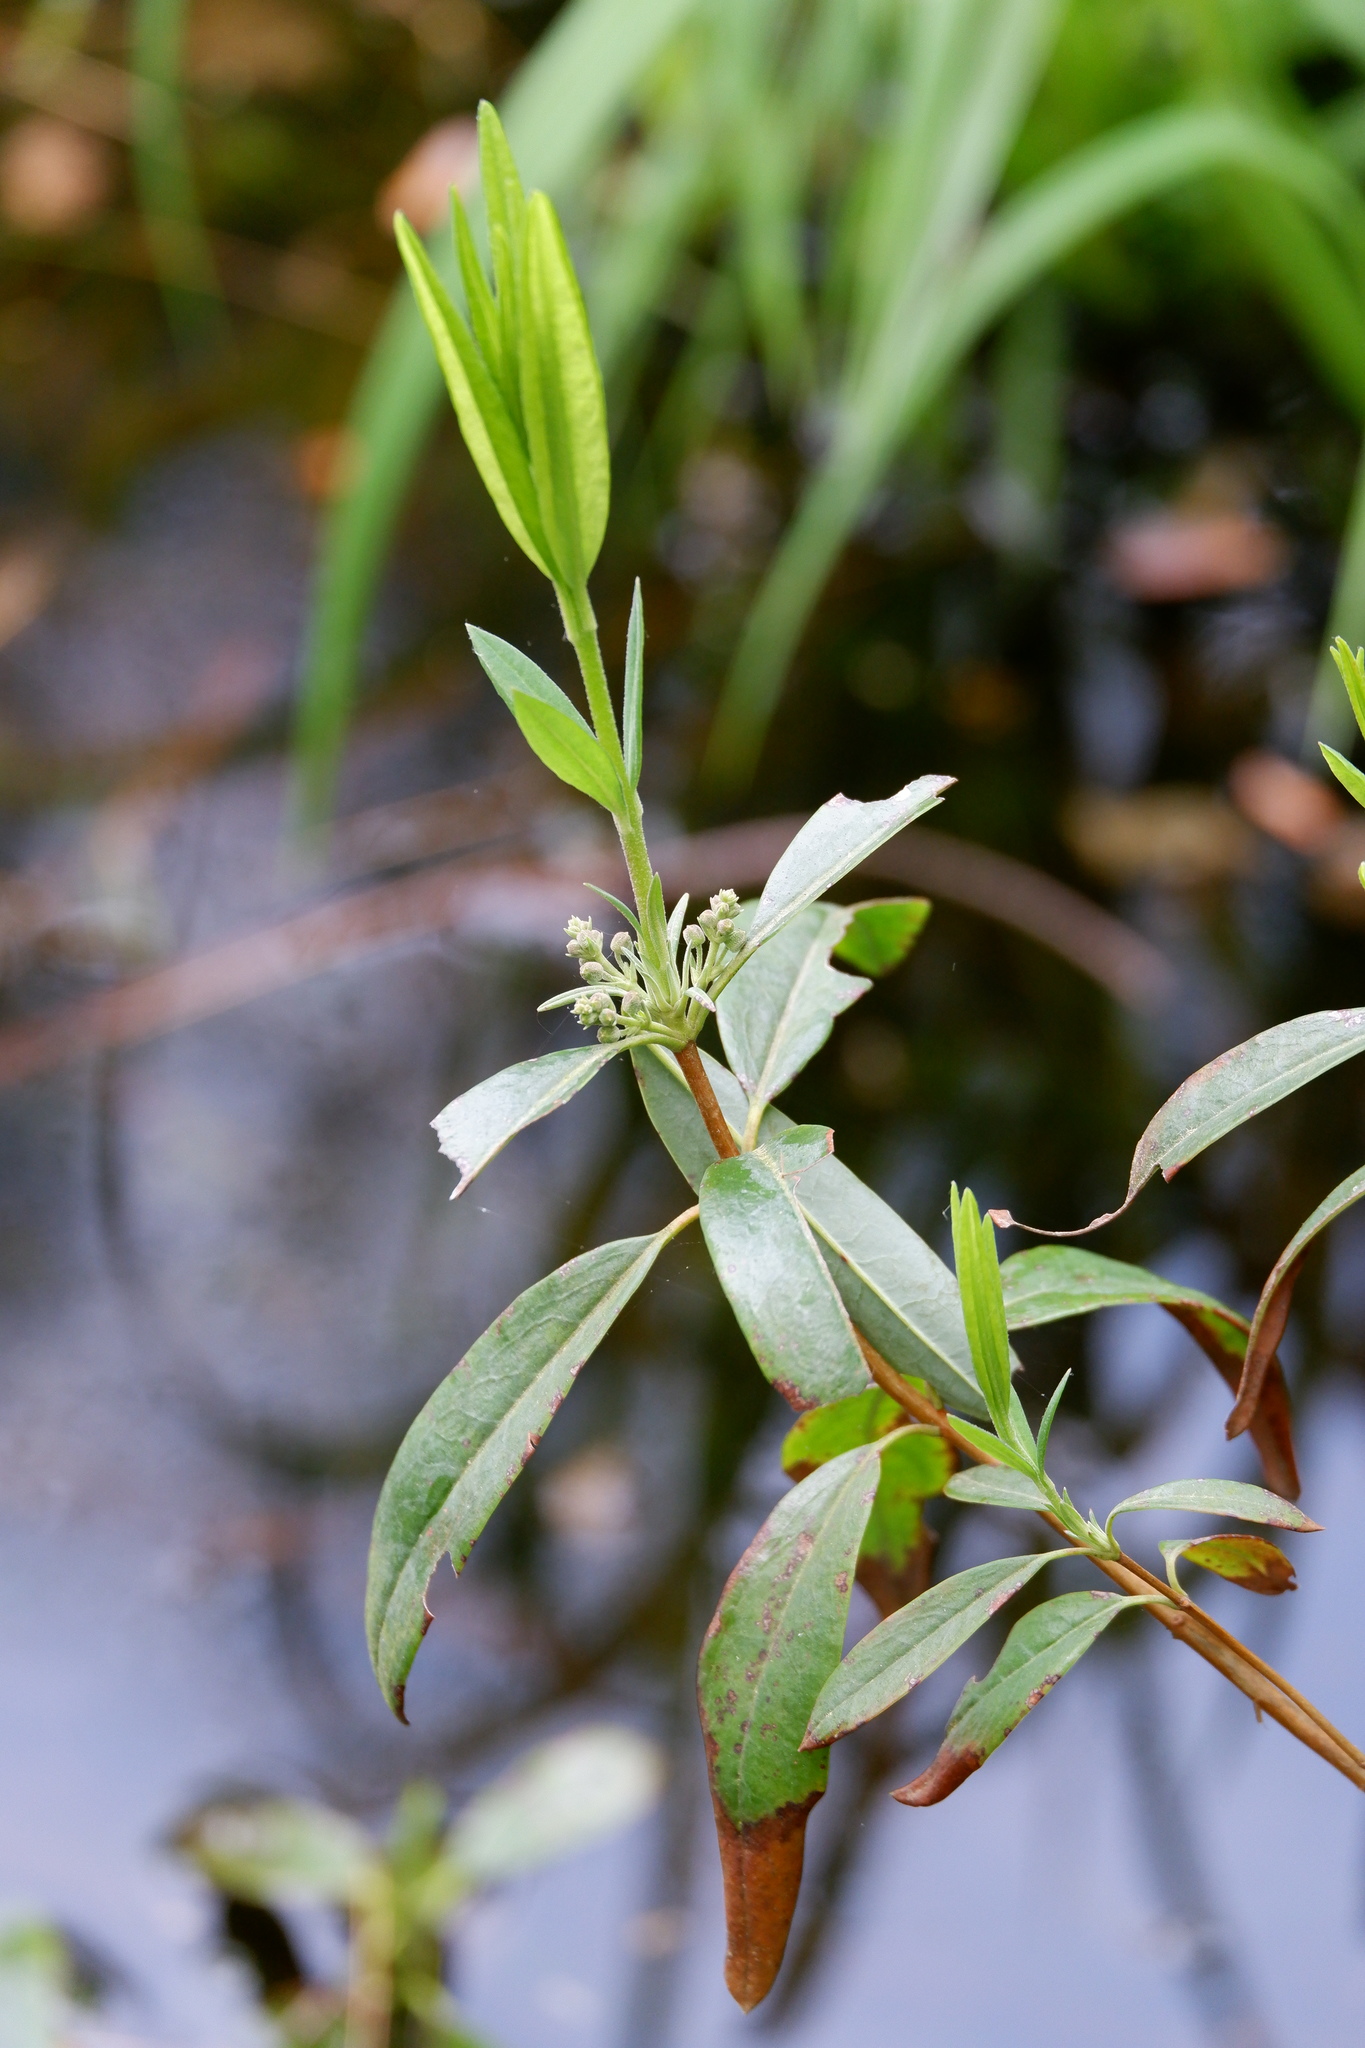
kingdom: Plantae
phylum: Tracheophyta
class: Magnoliopsida
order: Ericales
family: Ericaceae
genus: Kalmia
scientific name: Kalmia angustifolia
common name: Sheep-laurel
